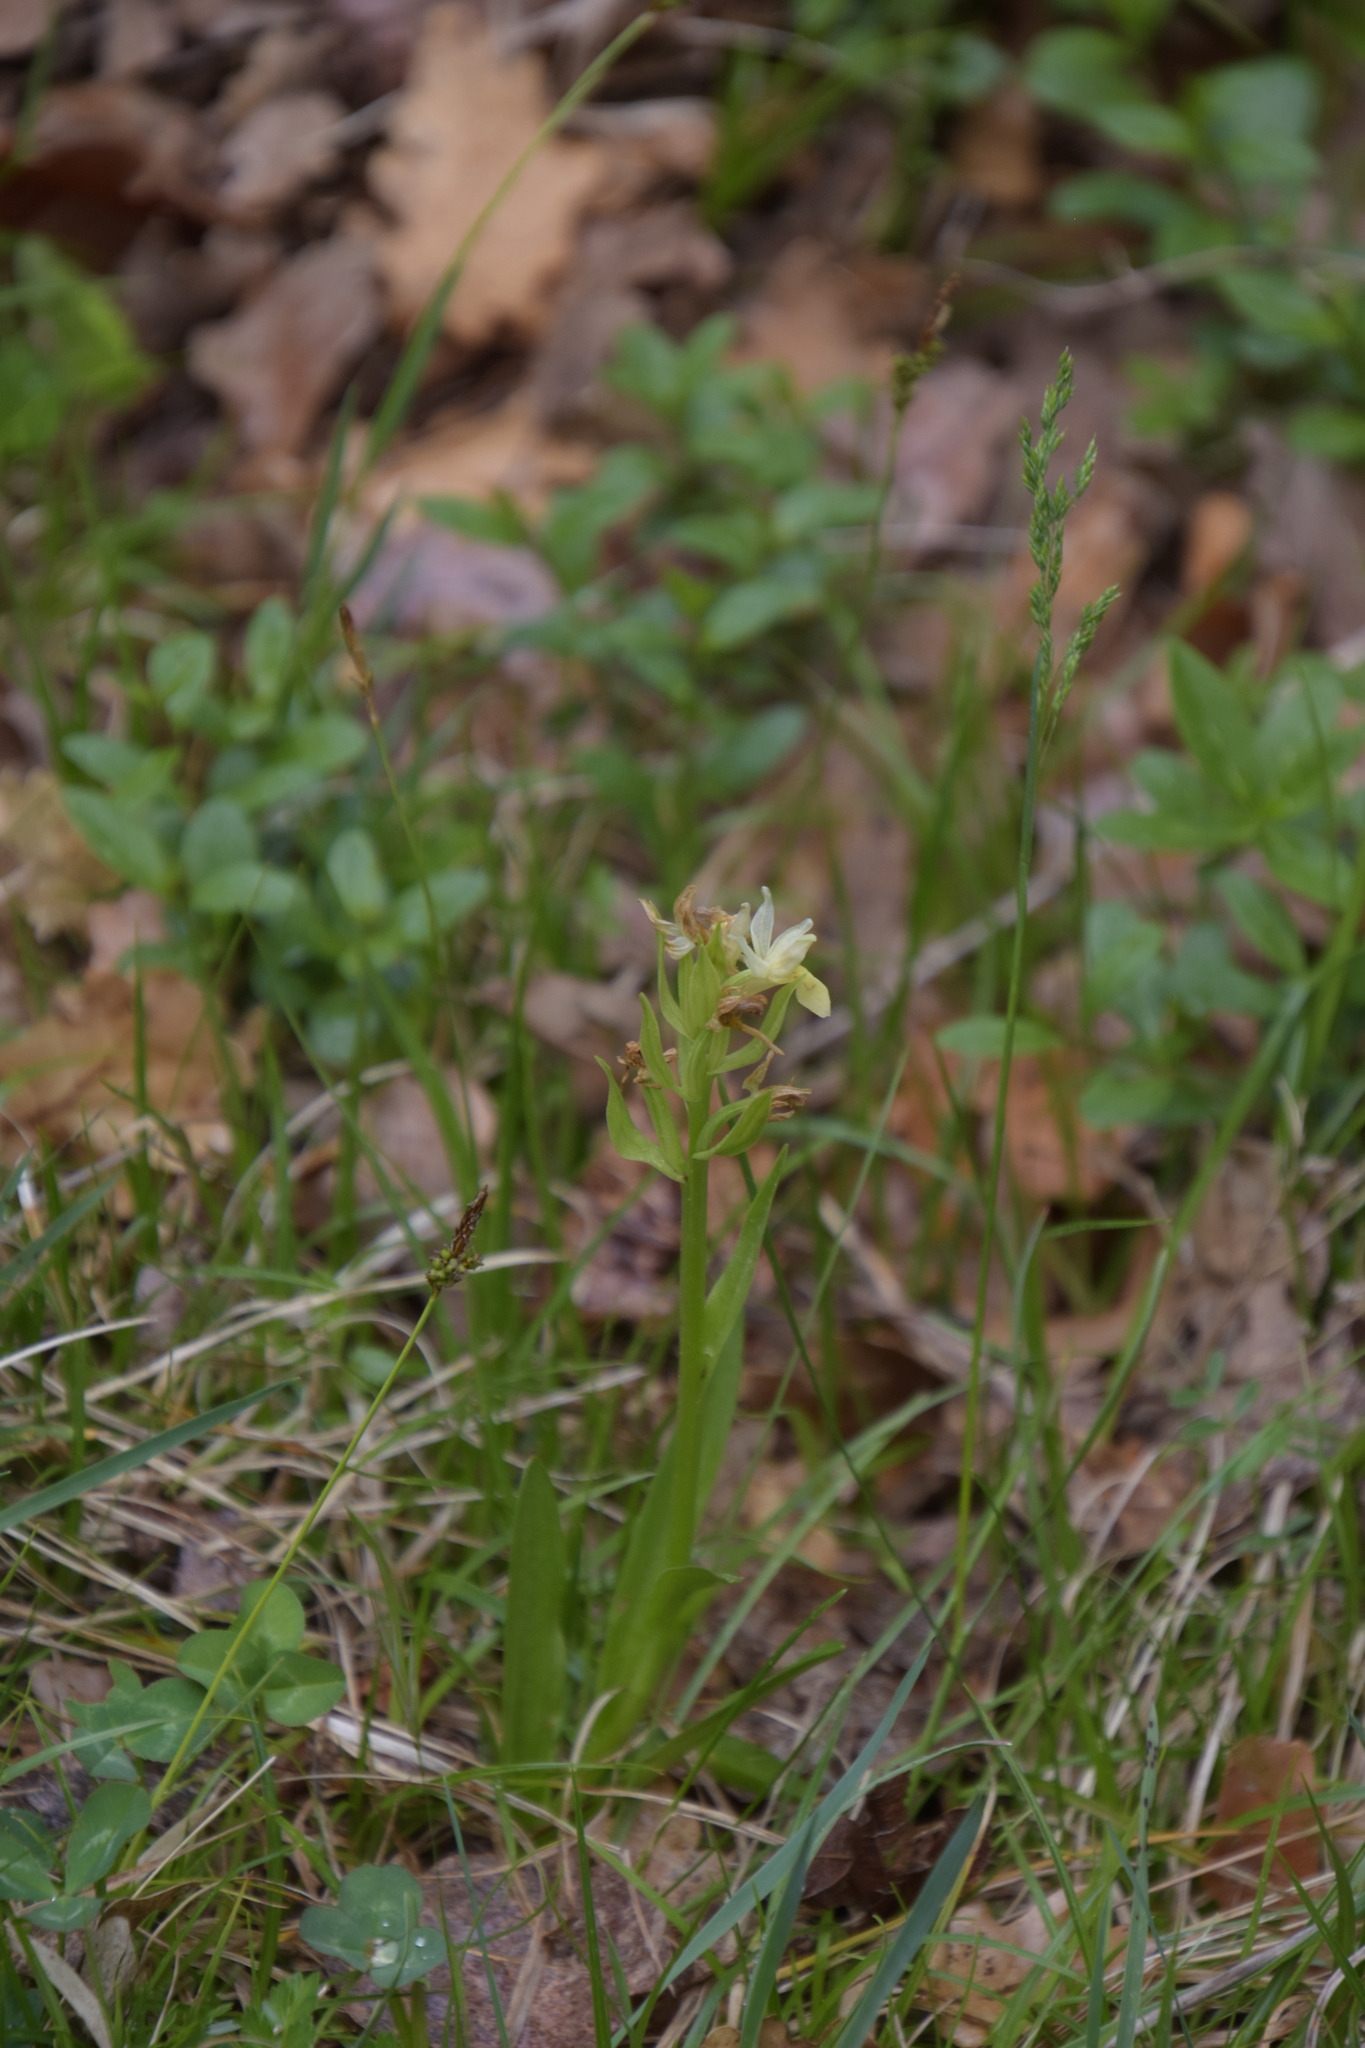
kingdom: Plantae
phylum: Tracheophyta
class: Liliopsida
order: Asparagales
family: Orchidaceae
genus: Dactylorhiza
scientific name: Dactylorhiza sambucina
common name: Elder-flowered orchid
